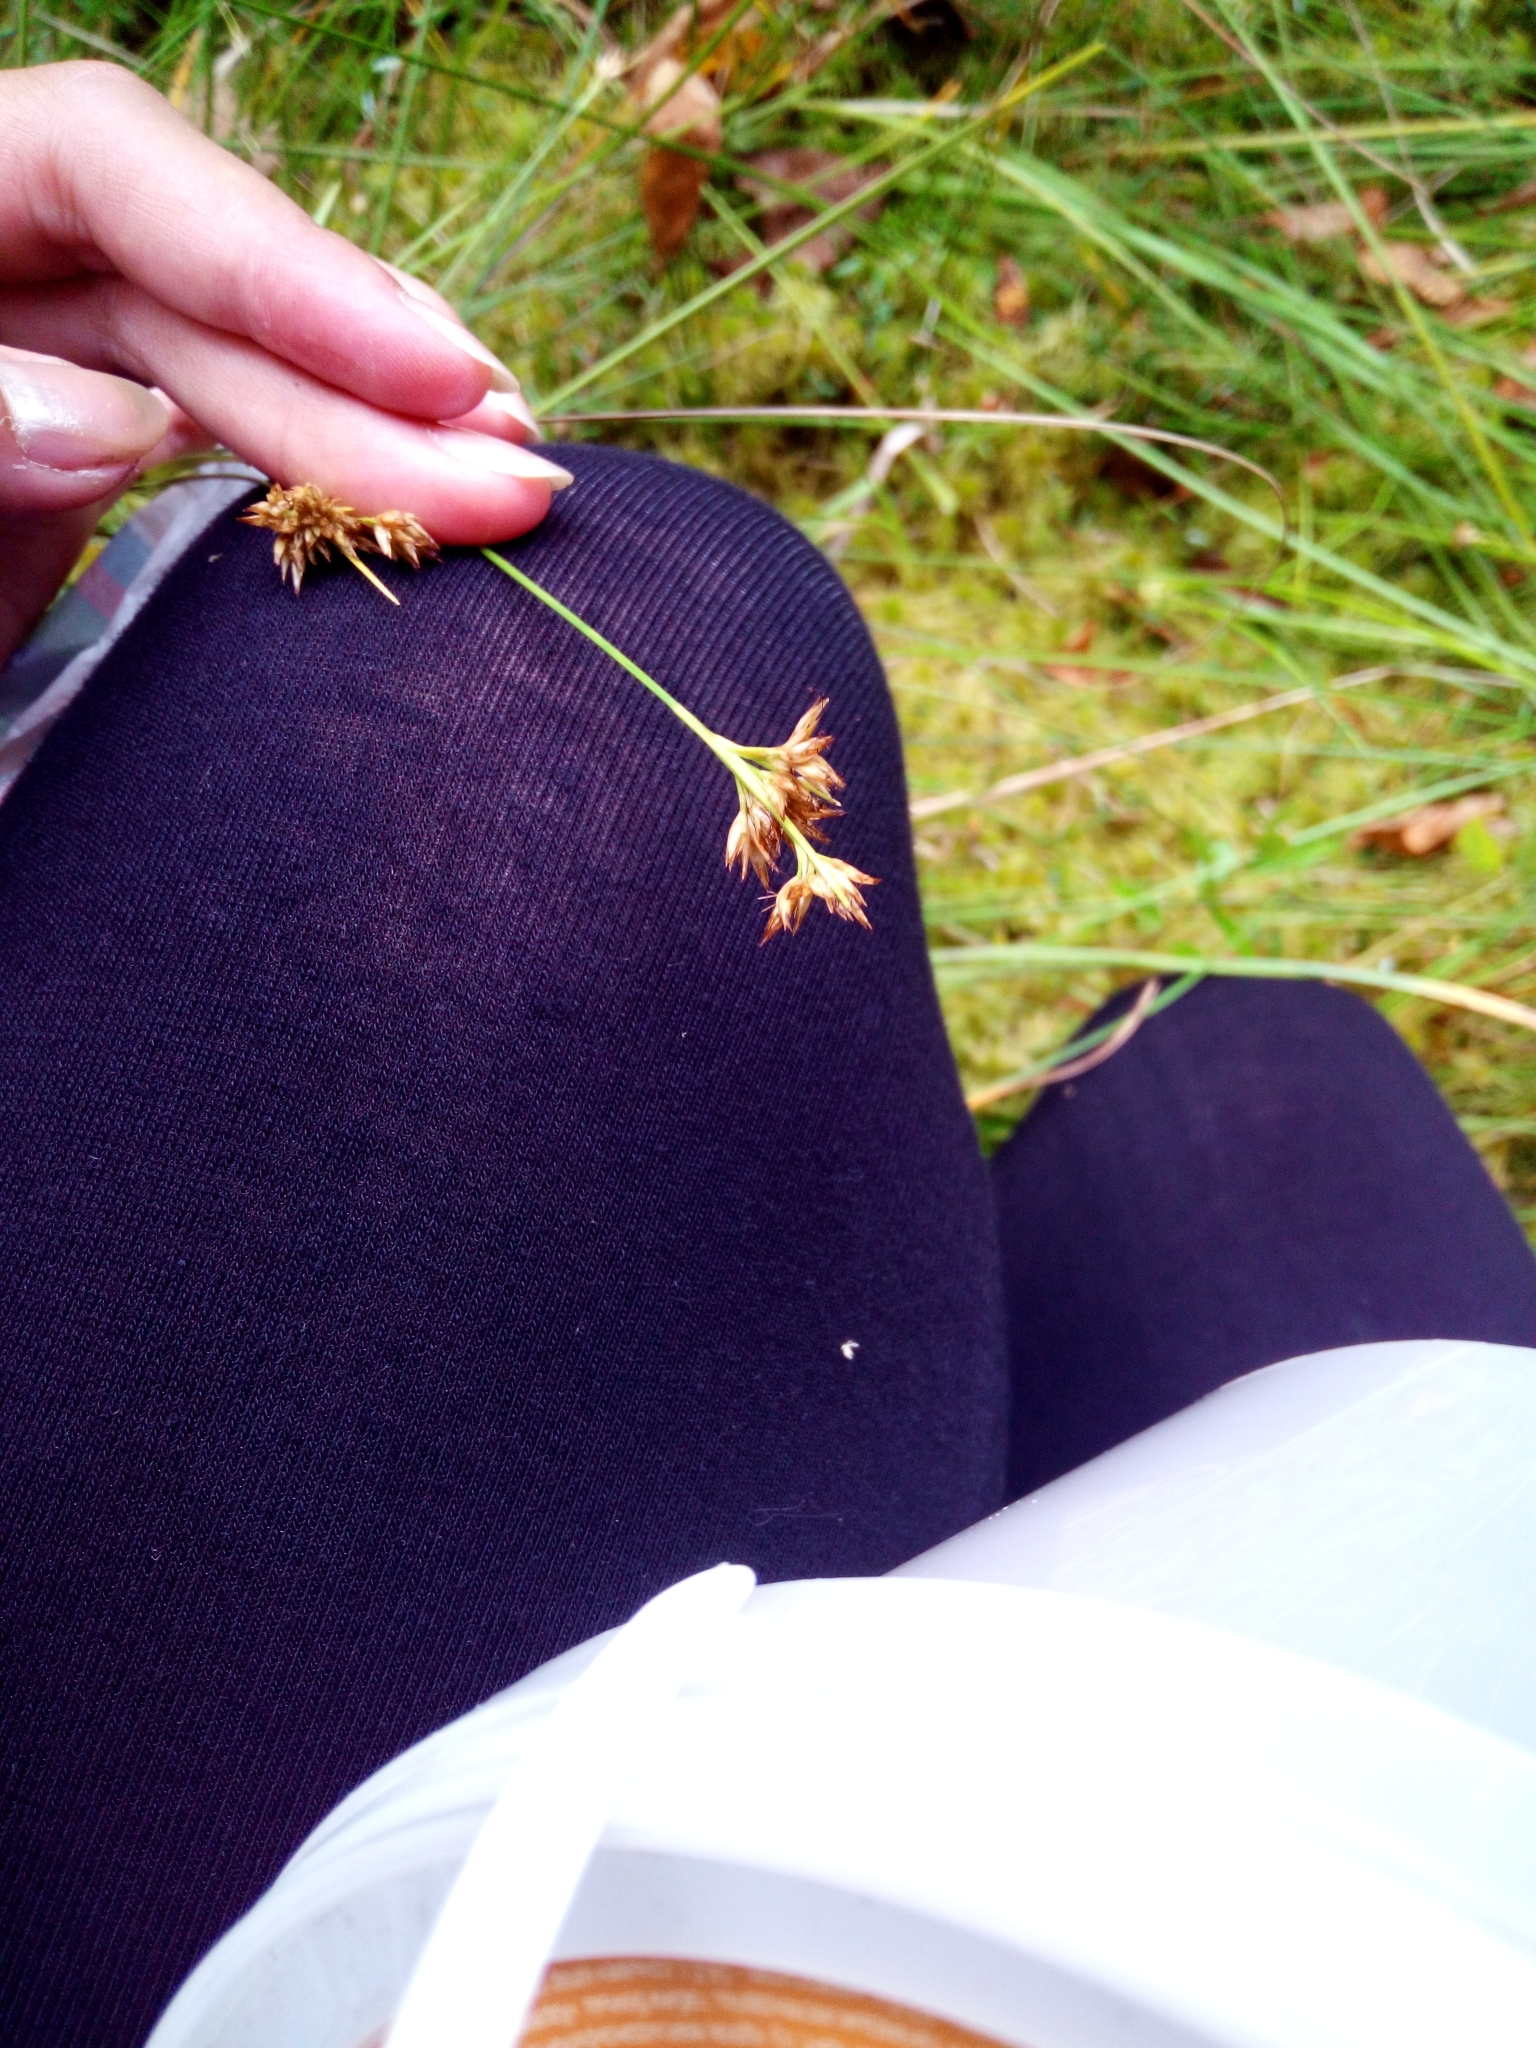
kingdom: Plantae
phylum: Tracheophyta
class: Liliopsida
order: Poales
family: Cyperaceae
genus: Rhynchospora
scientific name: Rhynchospora alba
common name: White beak-sedge
